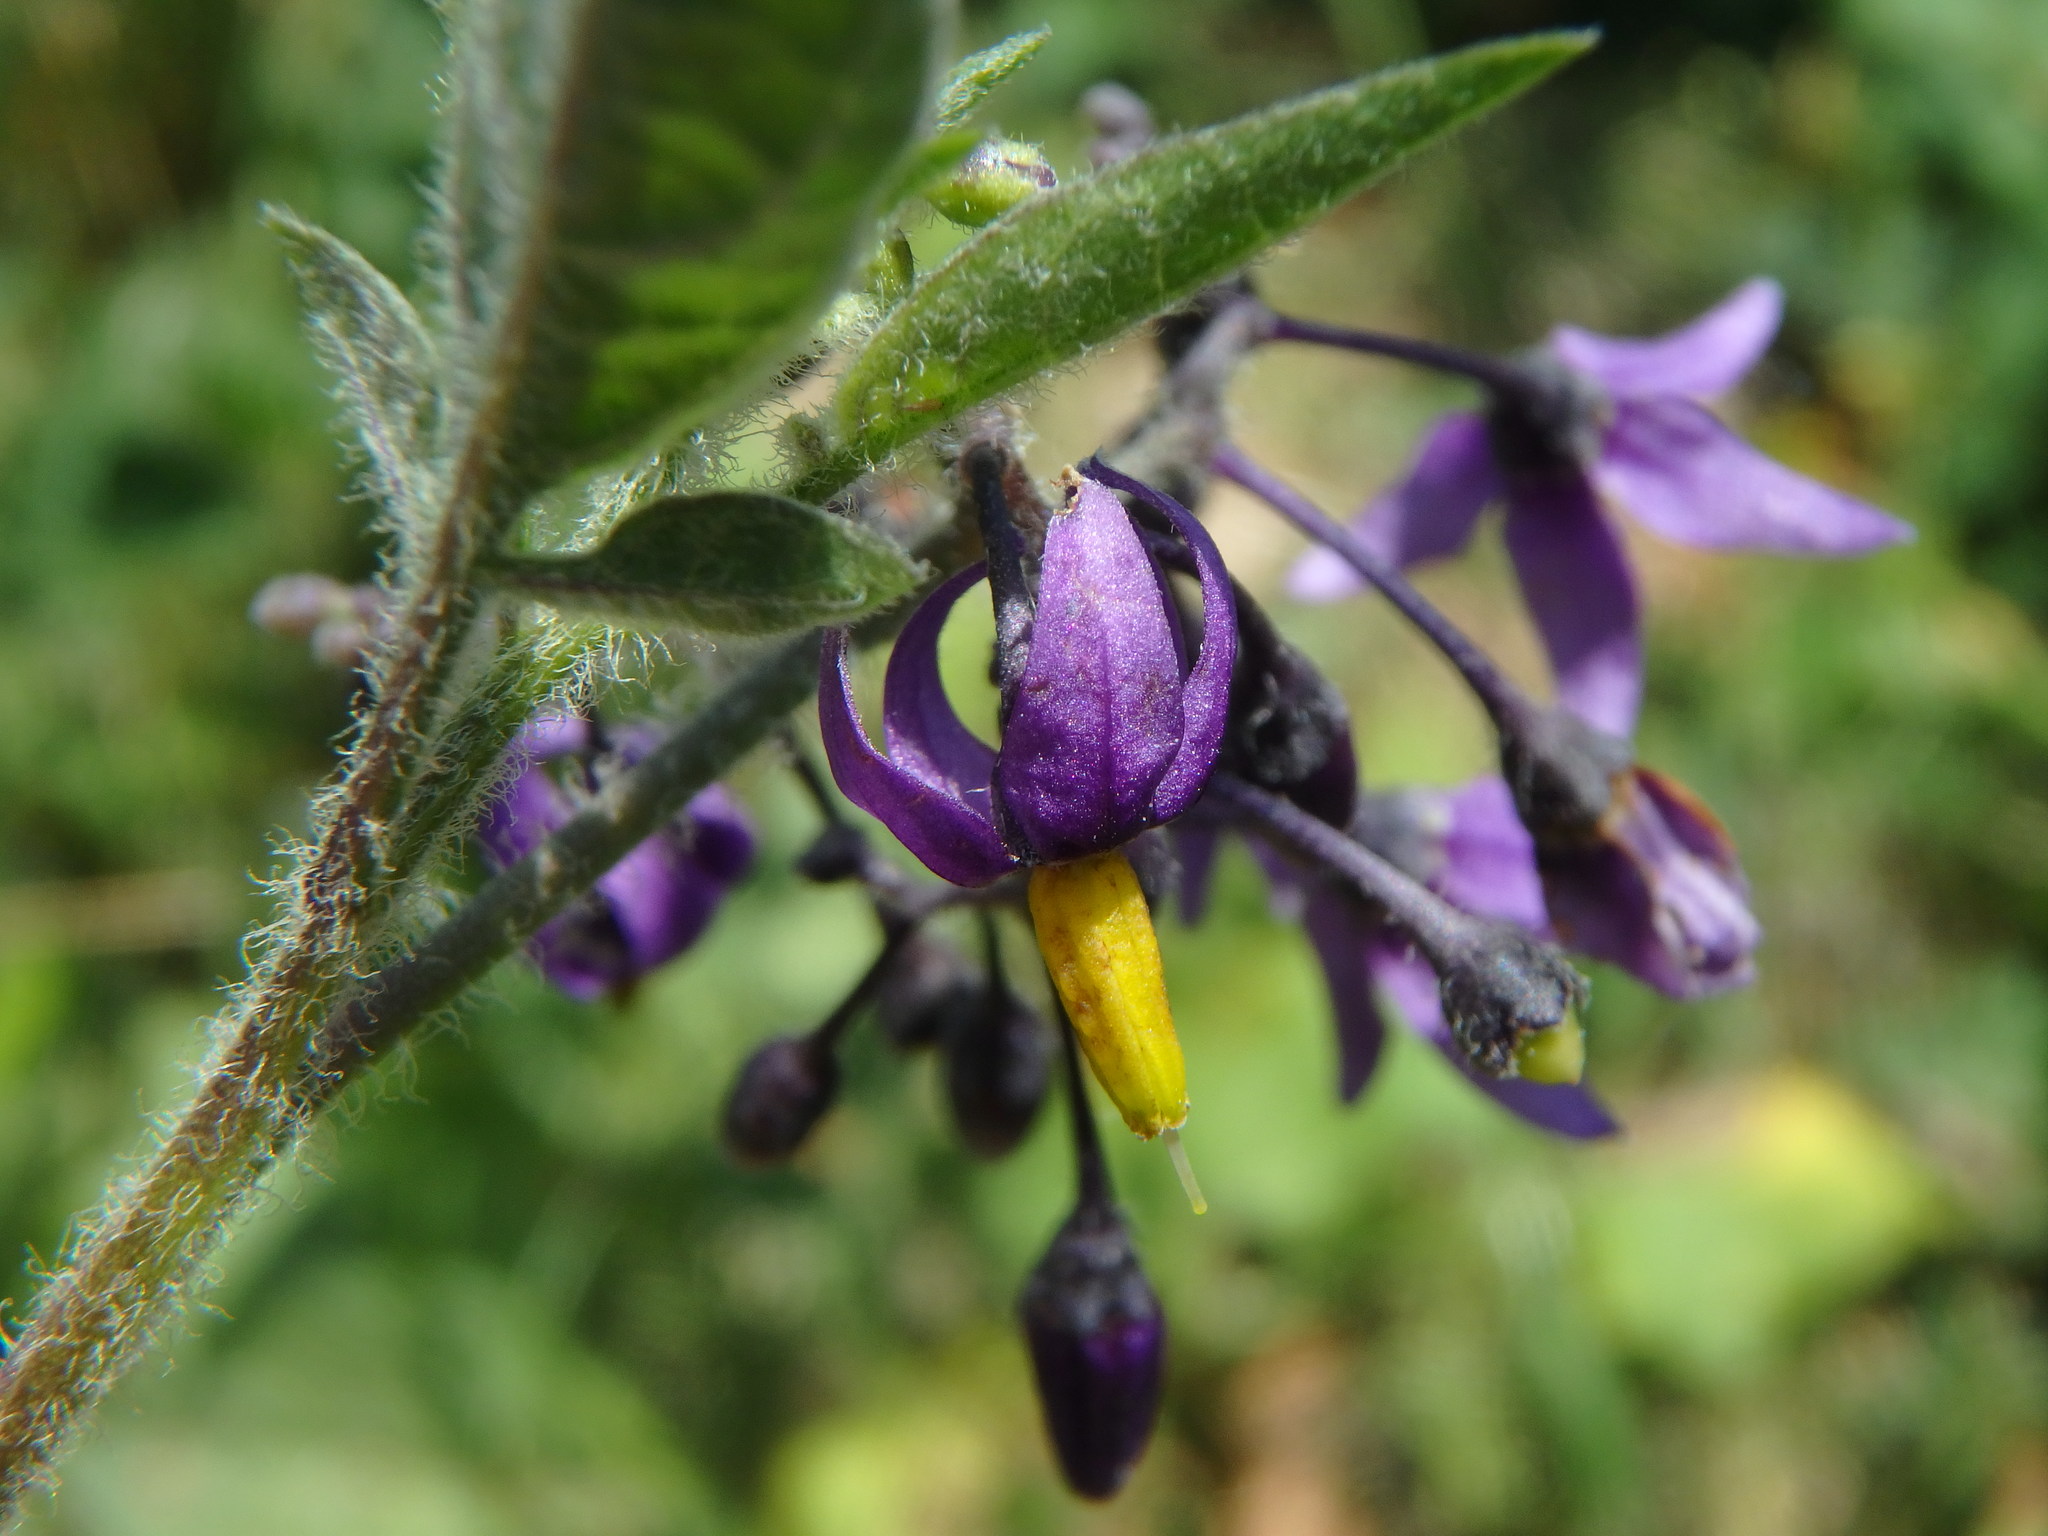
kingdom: Plantae
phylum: Tracheophyta
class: Magnoliopsida
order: Solanales
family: Solanaceae
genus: Solanum
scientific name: Solanum dulcamara
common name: Climbing nightshade
